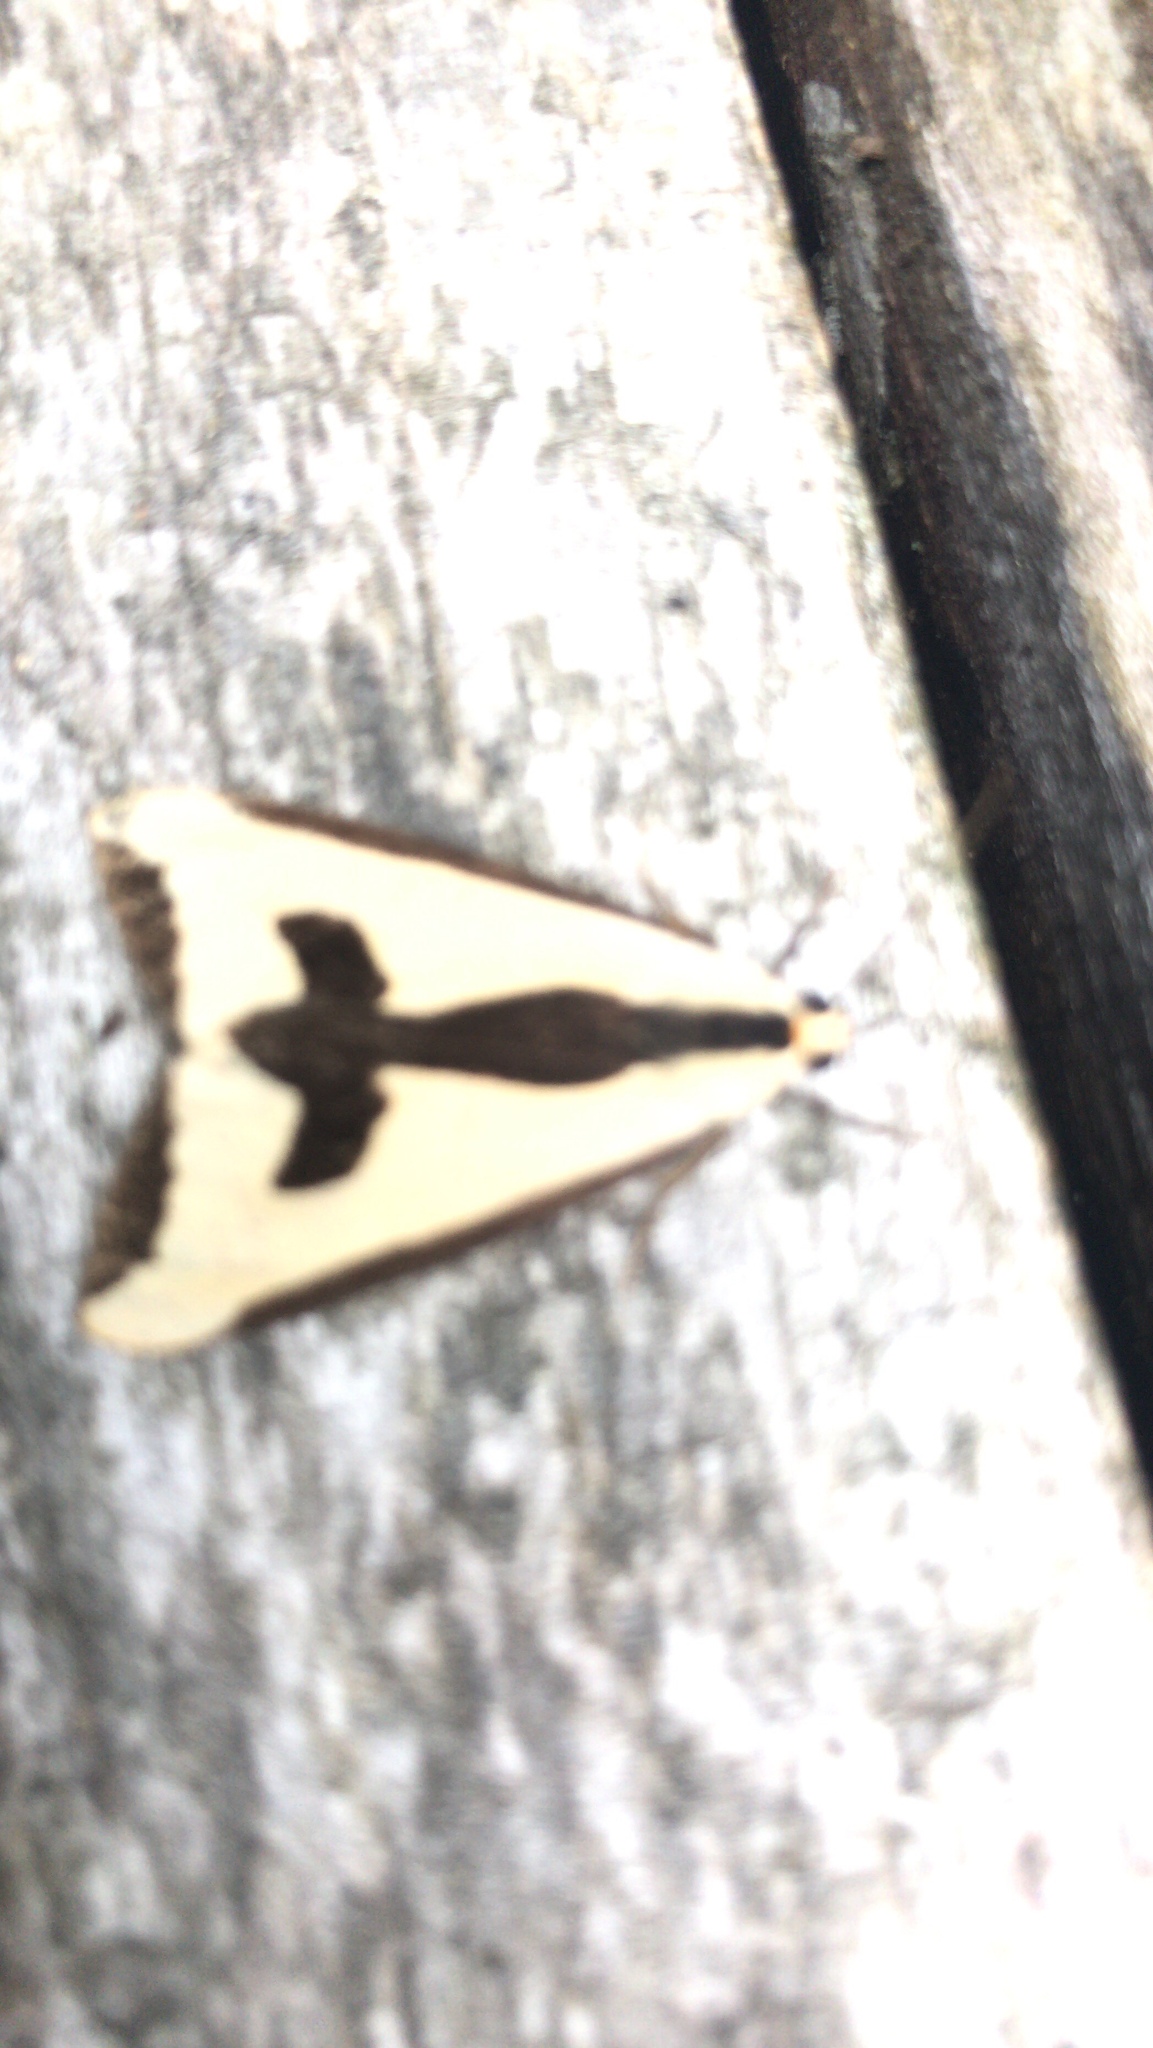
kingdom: Animalia
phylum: Arthropoda
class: Insecta
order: Lepidoptera
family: Erebidae
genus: Haploa
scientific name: Haploa clymene
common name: Clymene moth
